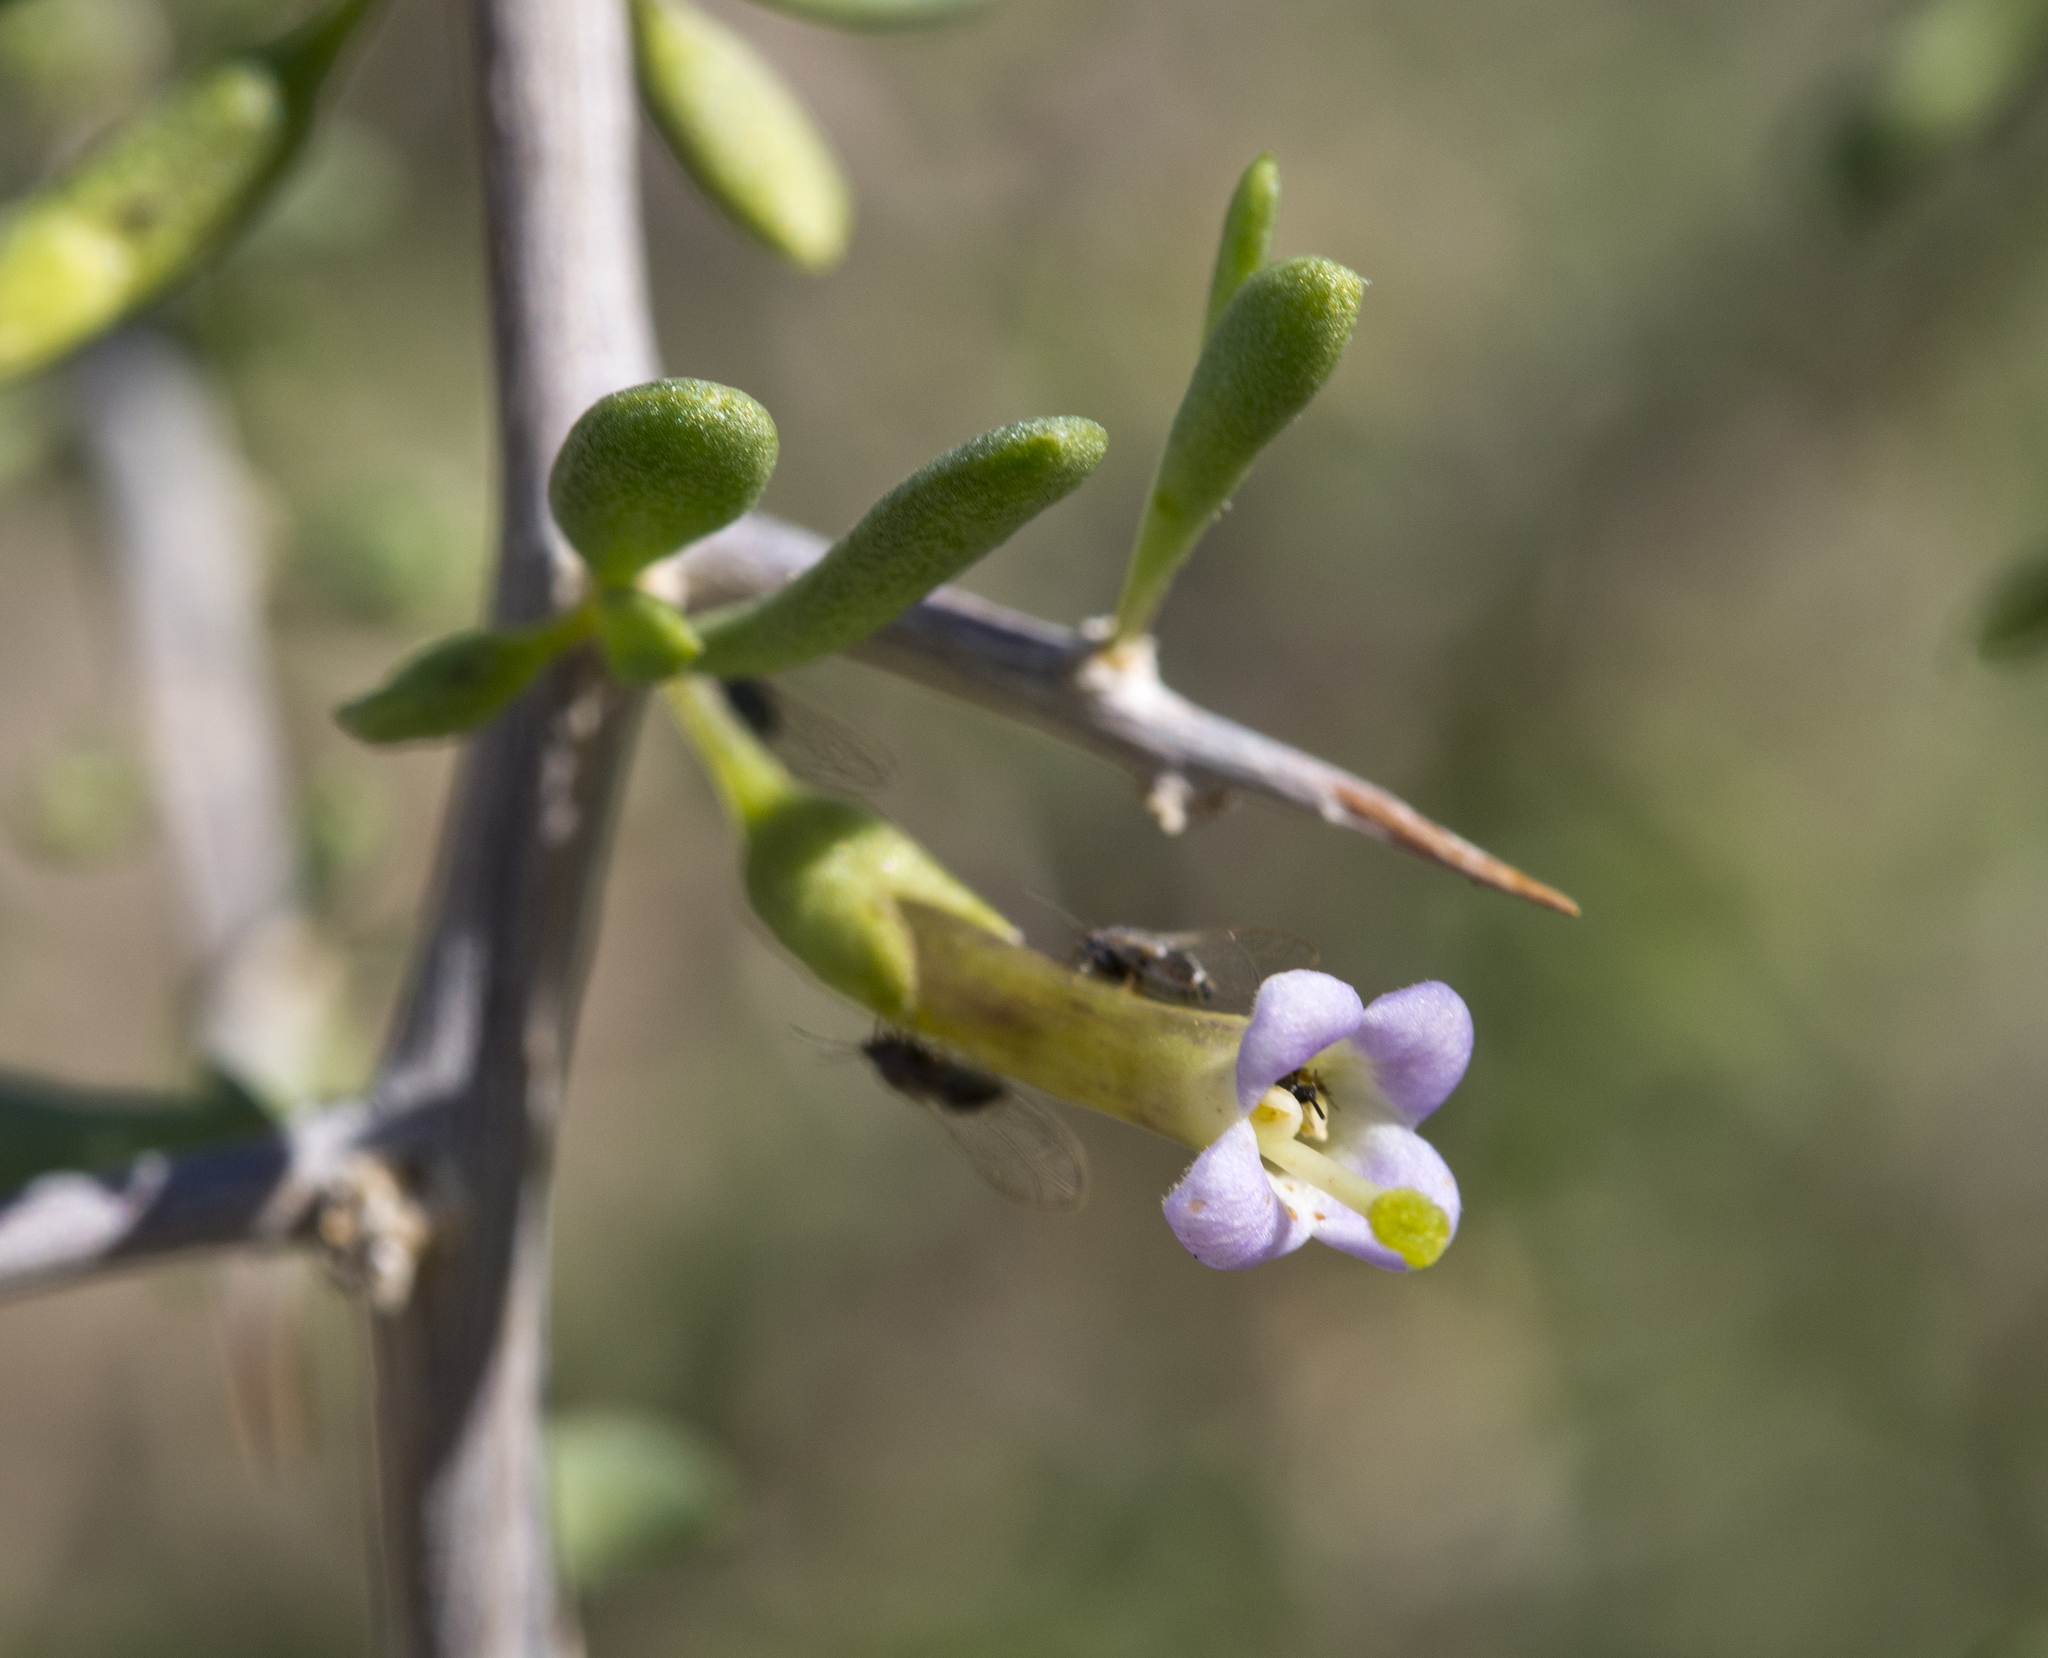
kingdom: Plantae
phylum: Tracheophyta
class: Magnoliopsida
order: Solanales
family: Solanaceae
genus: Lycium
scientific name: Lycium andersonii
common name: Water-jacket
